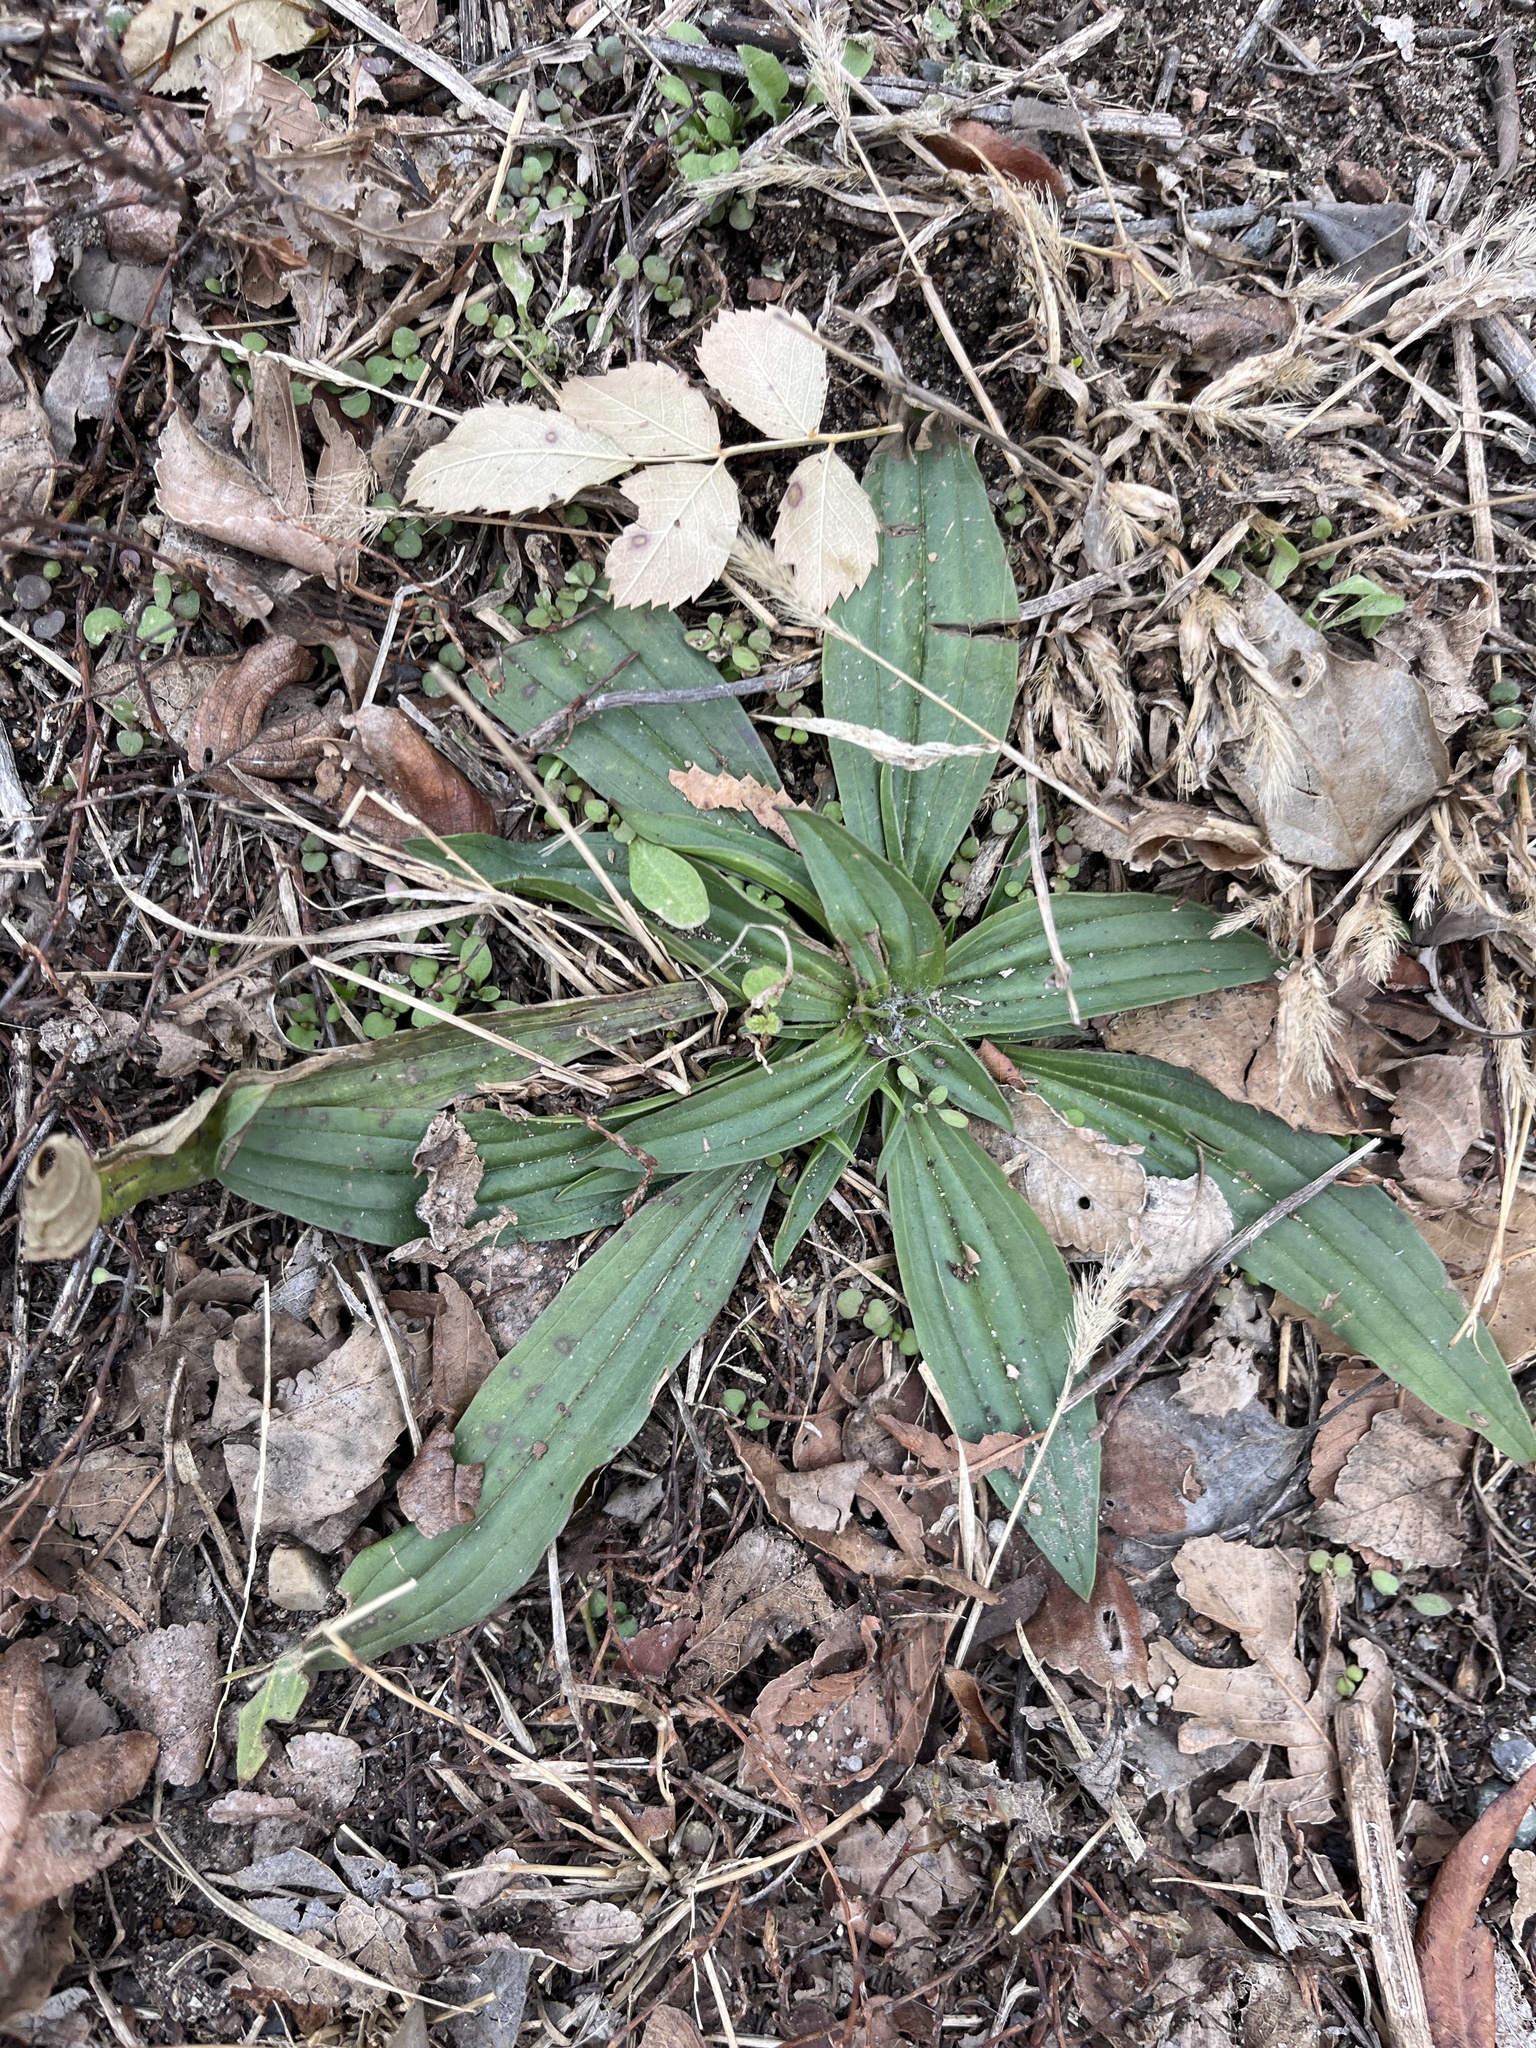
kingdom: Plantae
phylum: Tracheophyta
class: Magnoliopsida
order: Lamiales
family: Plantaginaceae
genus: Plantago
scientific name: Plantago lanceolata
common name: Ribwort plantain
